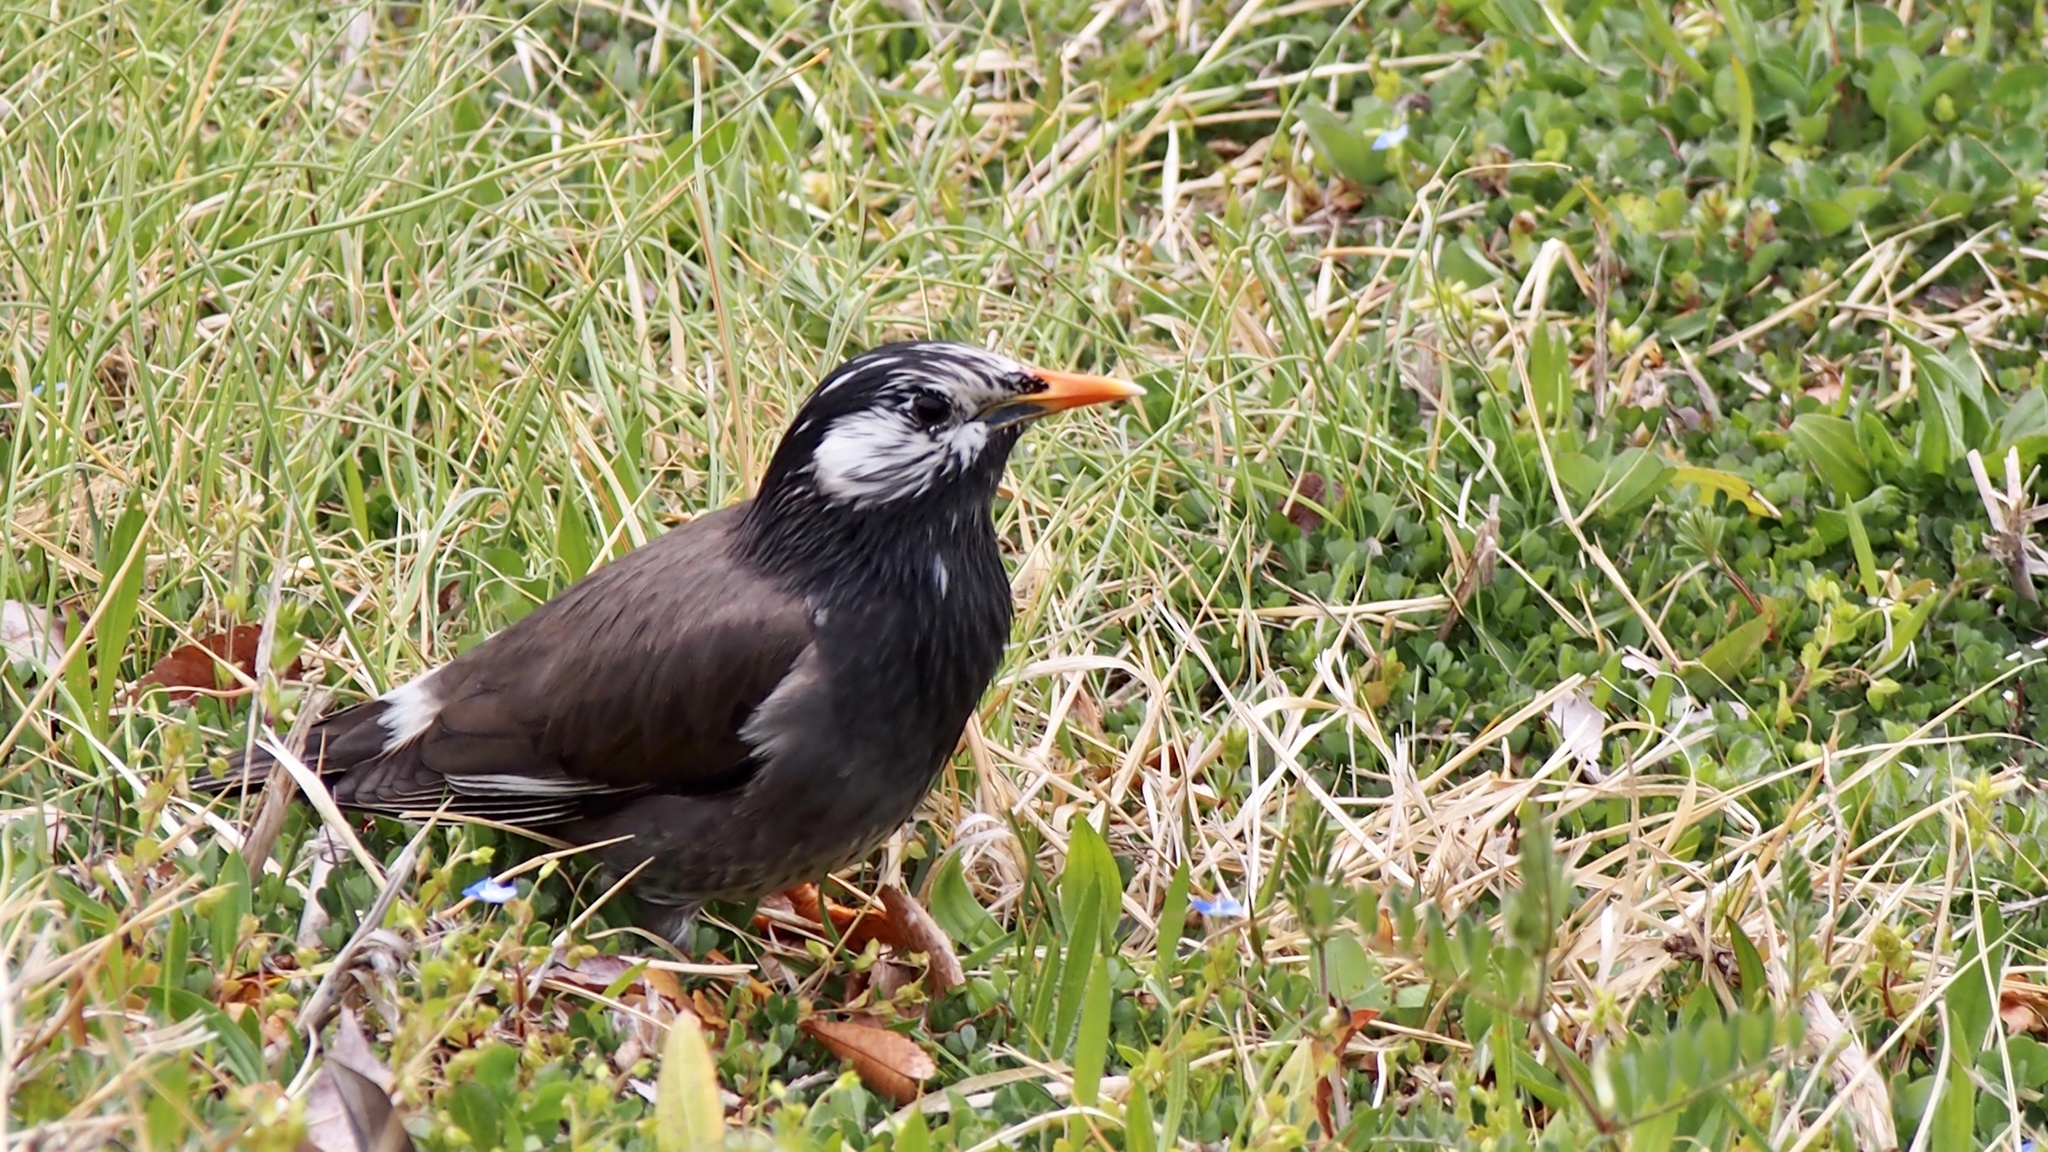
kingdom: Animalia
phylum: Chordata
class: Aves
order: Passeriformes
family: Sturnidae
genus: Spodiopsar
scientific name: Spodiopsar cineraceus
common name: White-cheeked starling
